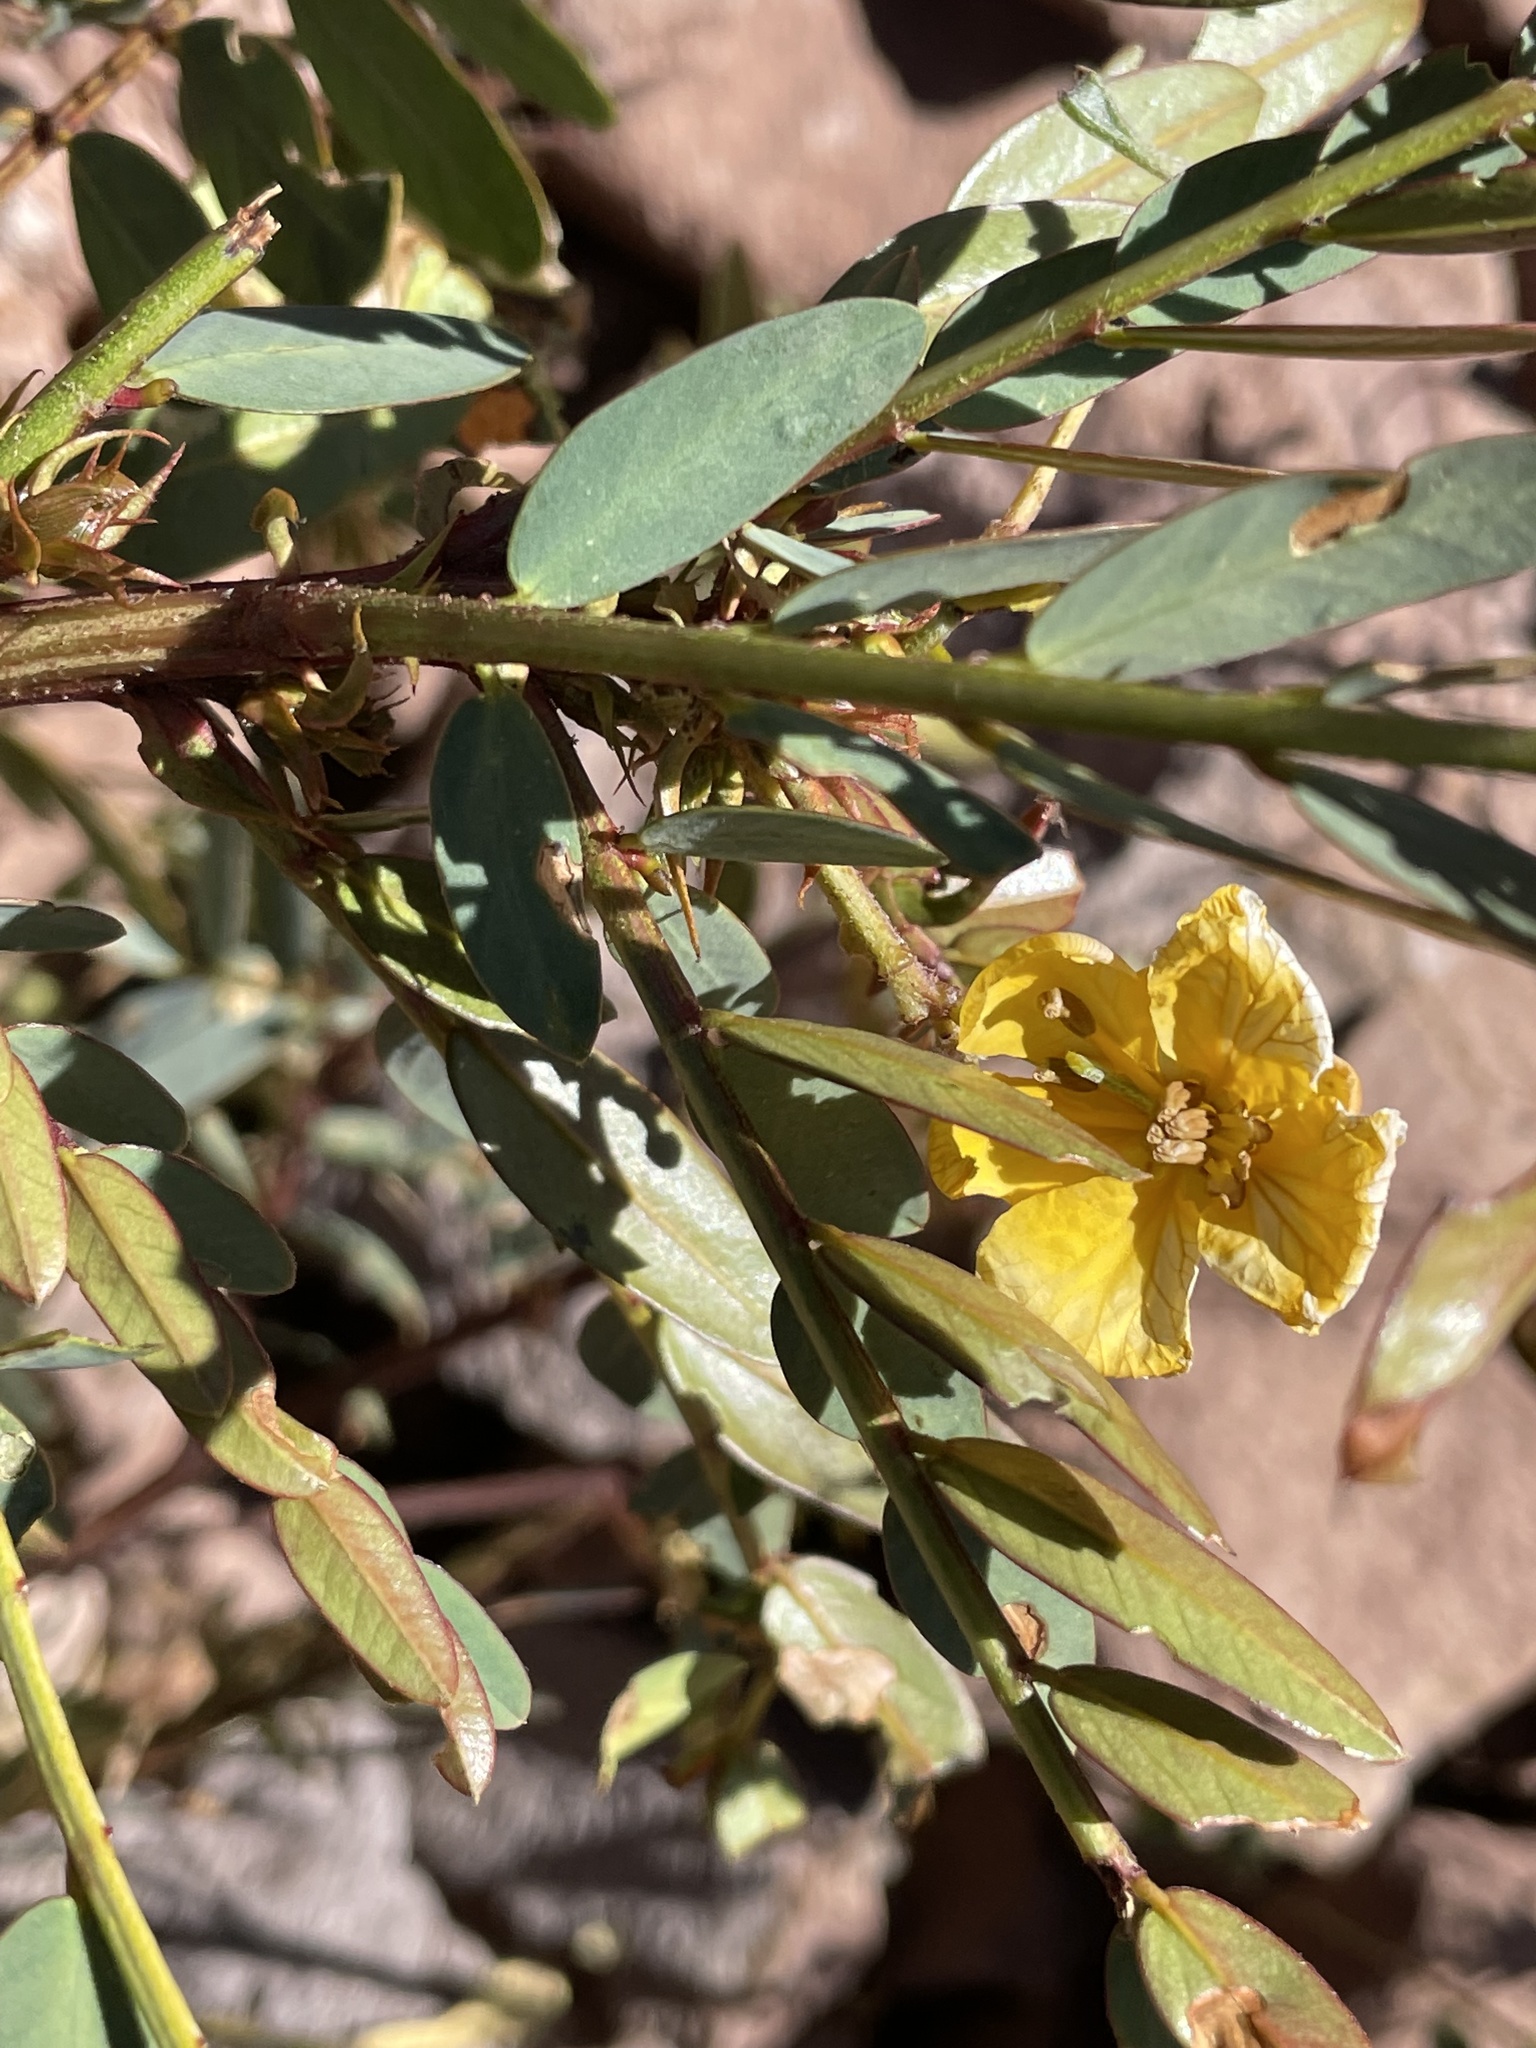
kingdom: Plantae
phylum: Tracheophyta
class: Magnoliopsida
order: Fabales
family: Fabaceae
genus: Senna
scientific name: Senna punoensis
